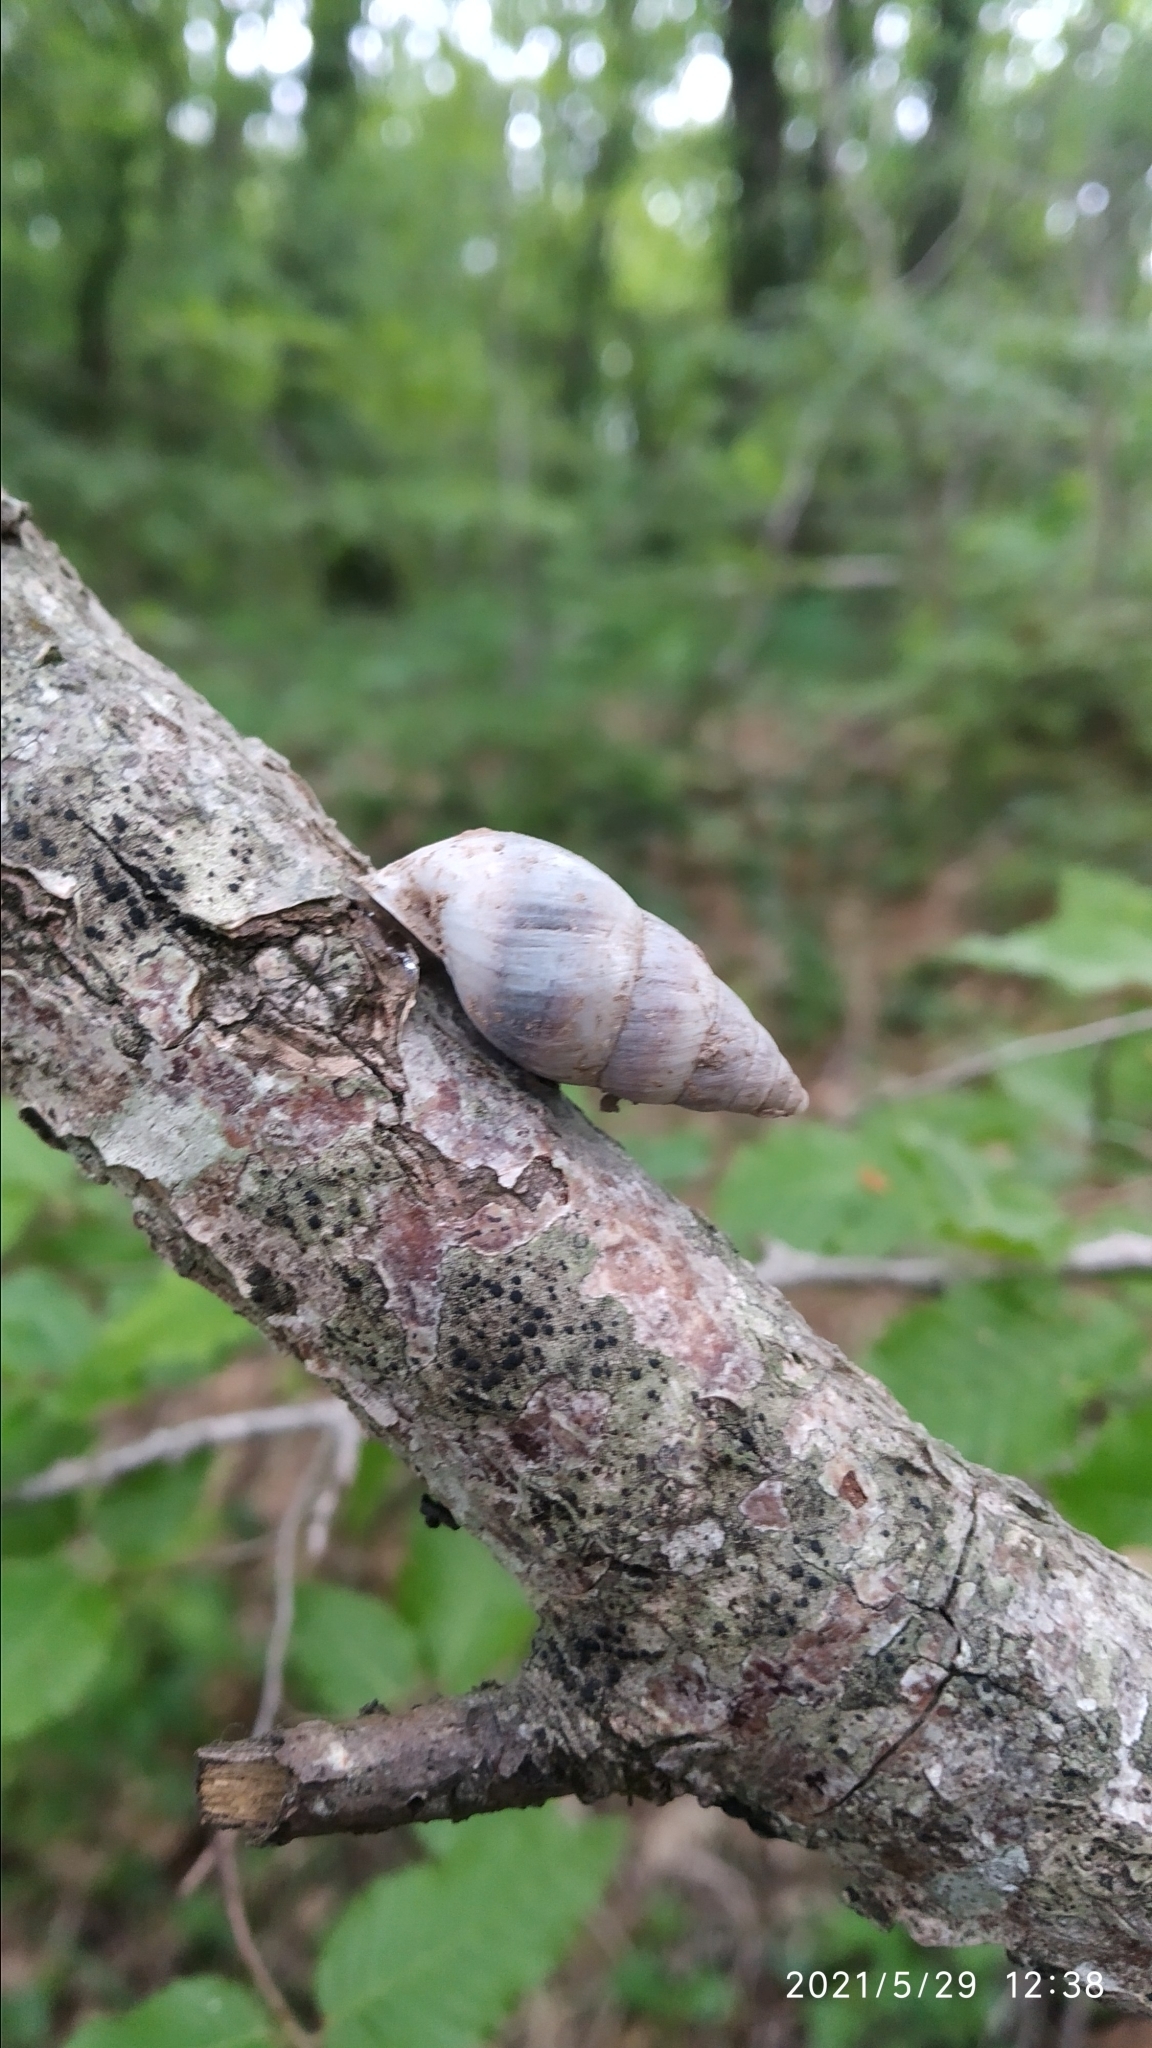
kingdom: Animalia
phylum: Mollusca
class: Gastropoda
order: Stylommatophora
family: Enidae
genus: Caucasicola
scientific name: Caucasicola raddei
